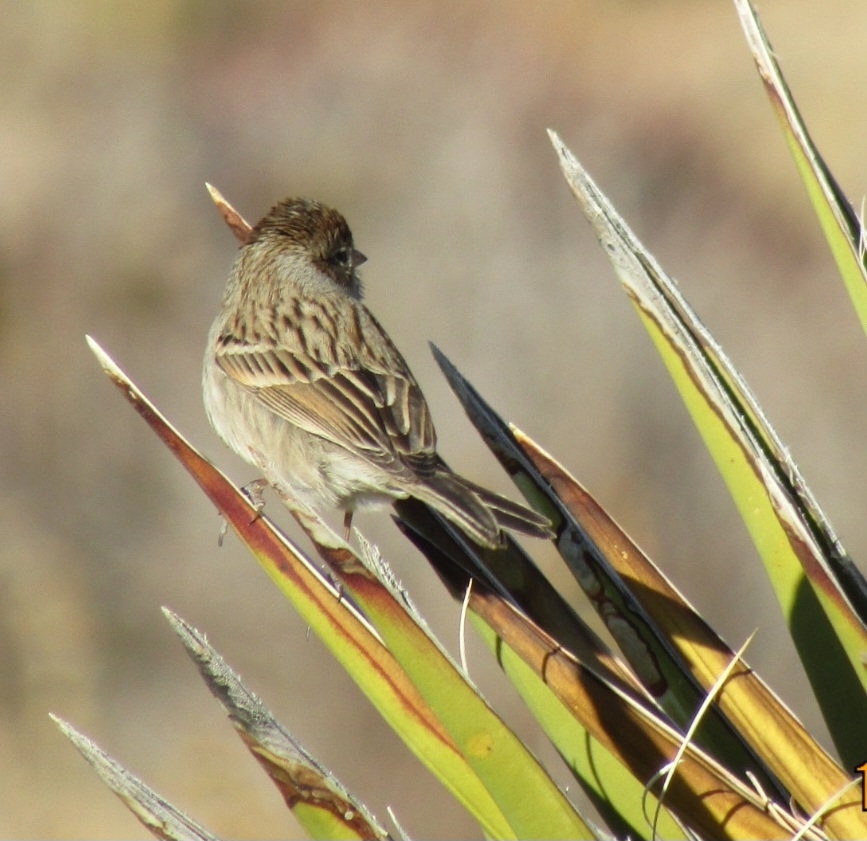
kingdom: Animalia
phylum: Chordata
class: Aves
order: Passeriformes
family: Passerellidae
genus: Spizella
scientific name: Spizella breweri
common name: Brewer's sparrow
